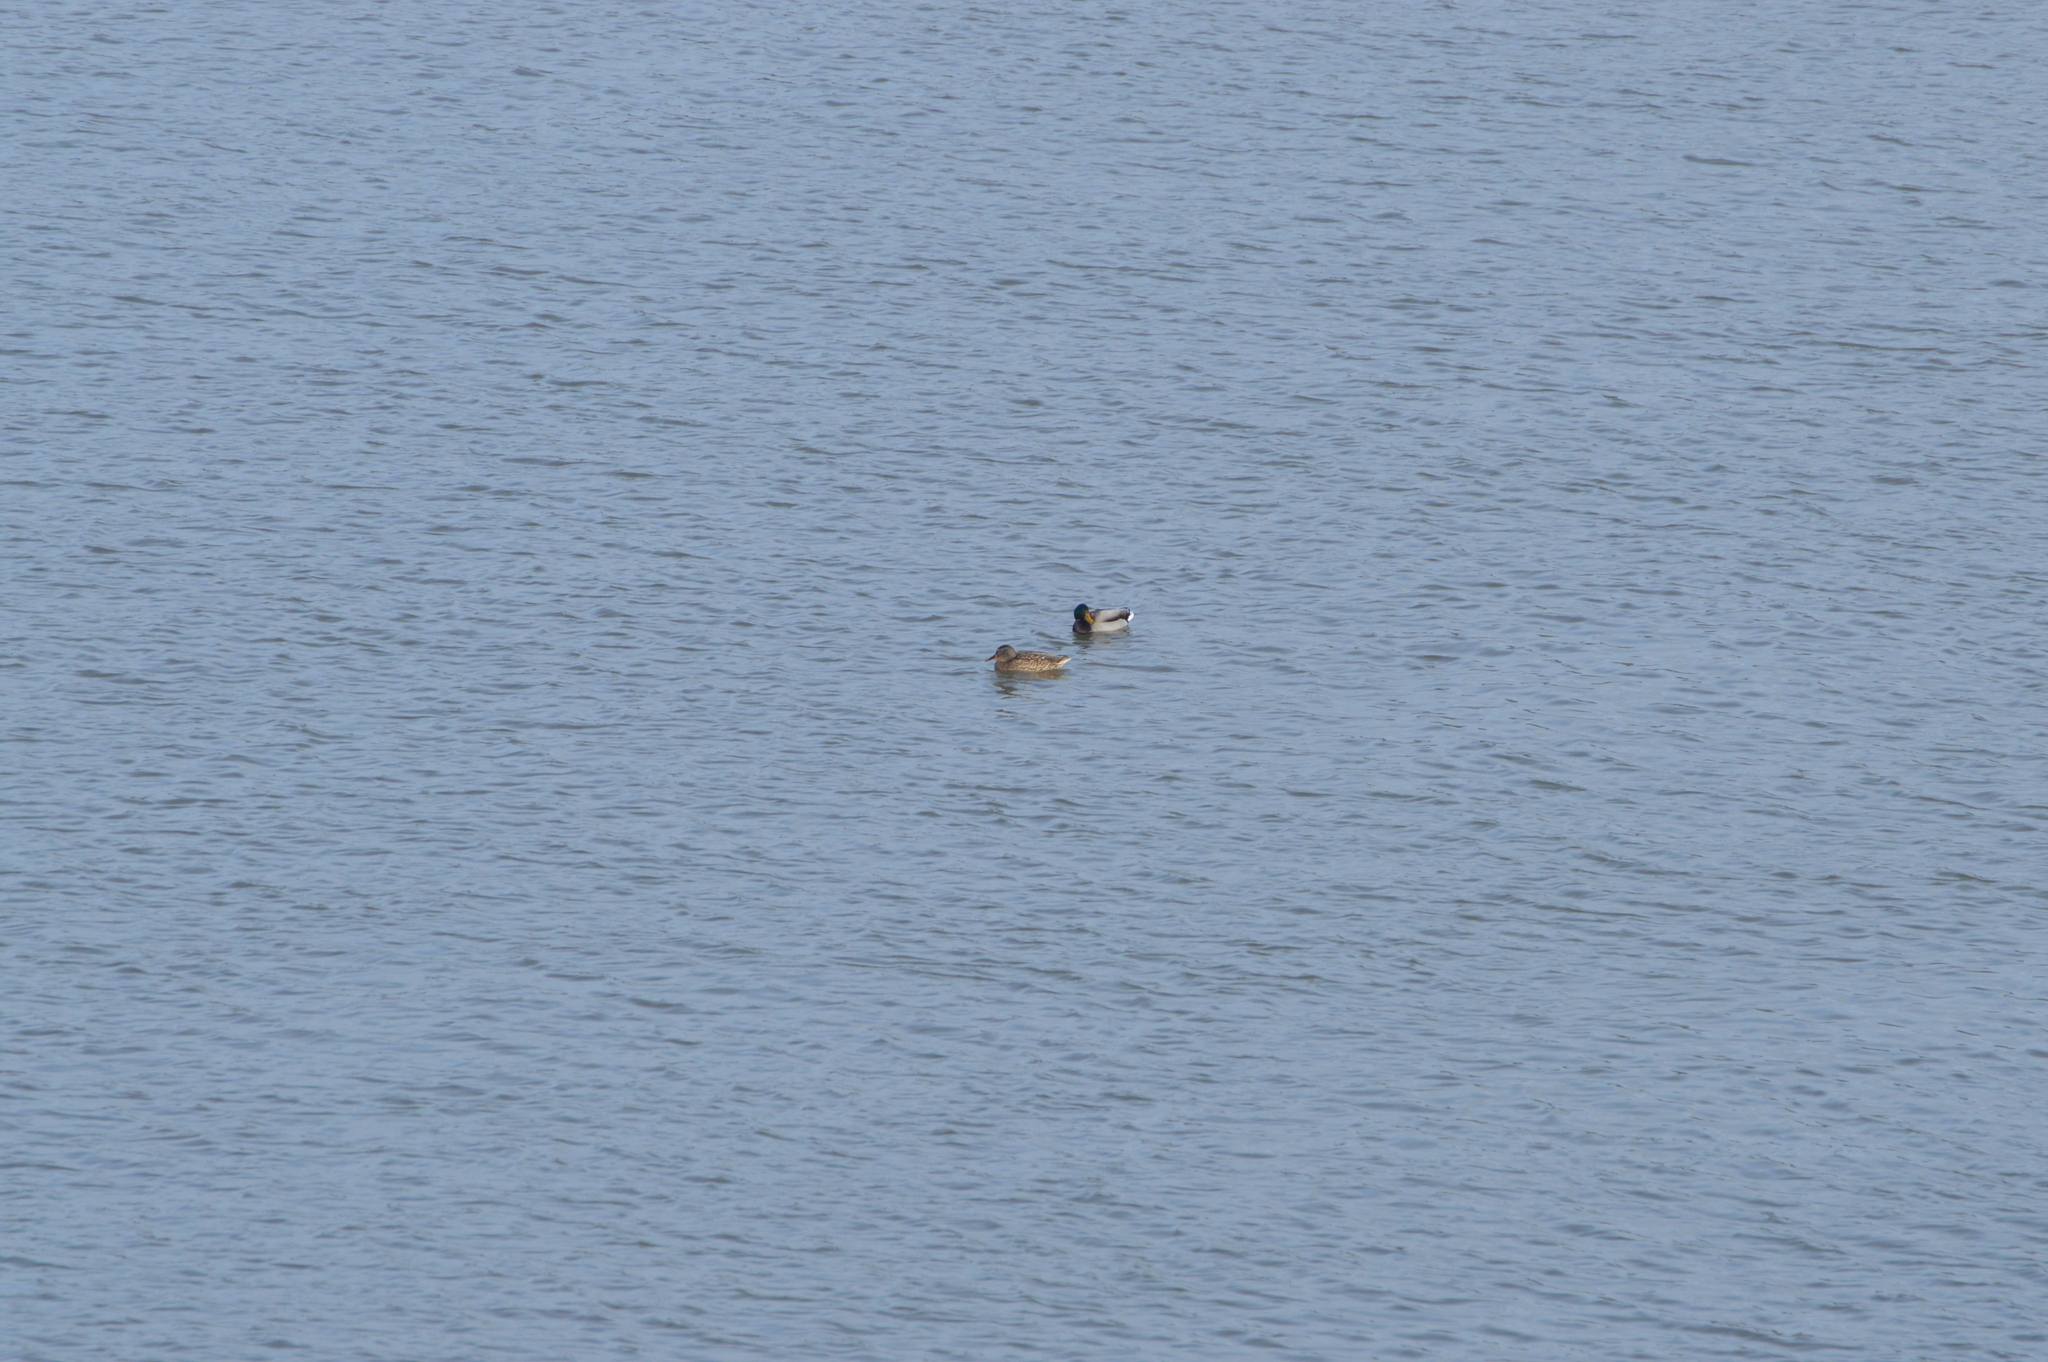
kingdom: Animalia
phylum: Chordata
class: Aves
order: Anseriformes
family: Anatidae
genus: Anas
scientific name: Anas platyrhynchos
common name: Mallard
